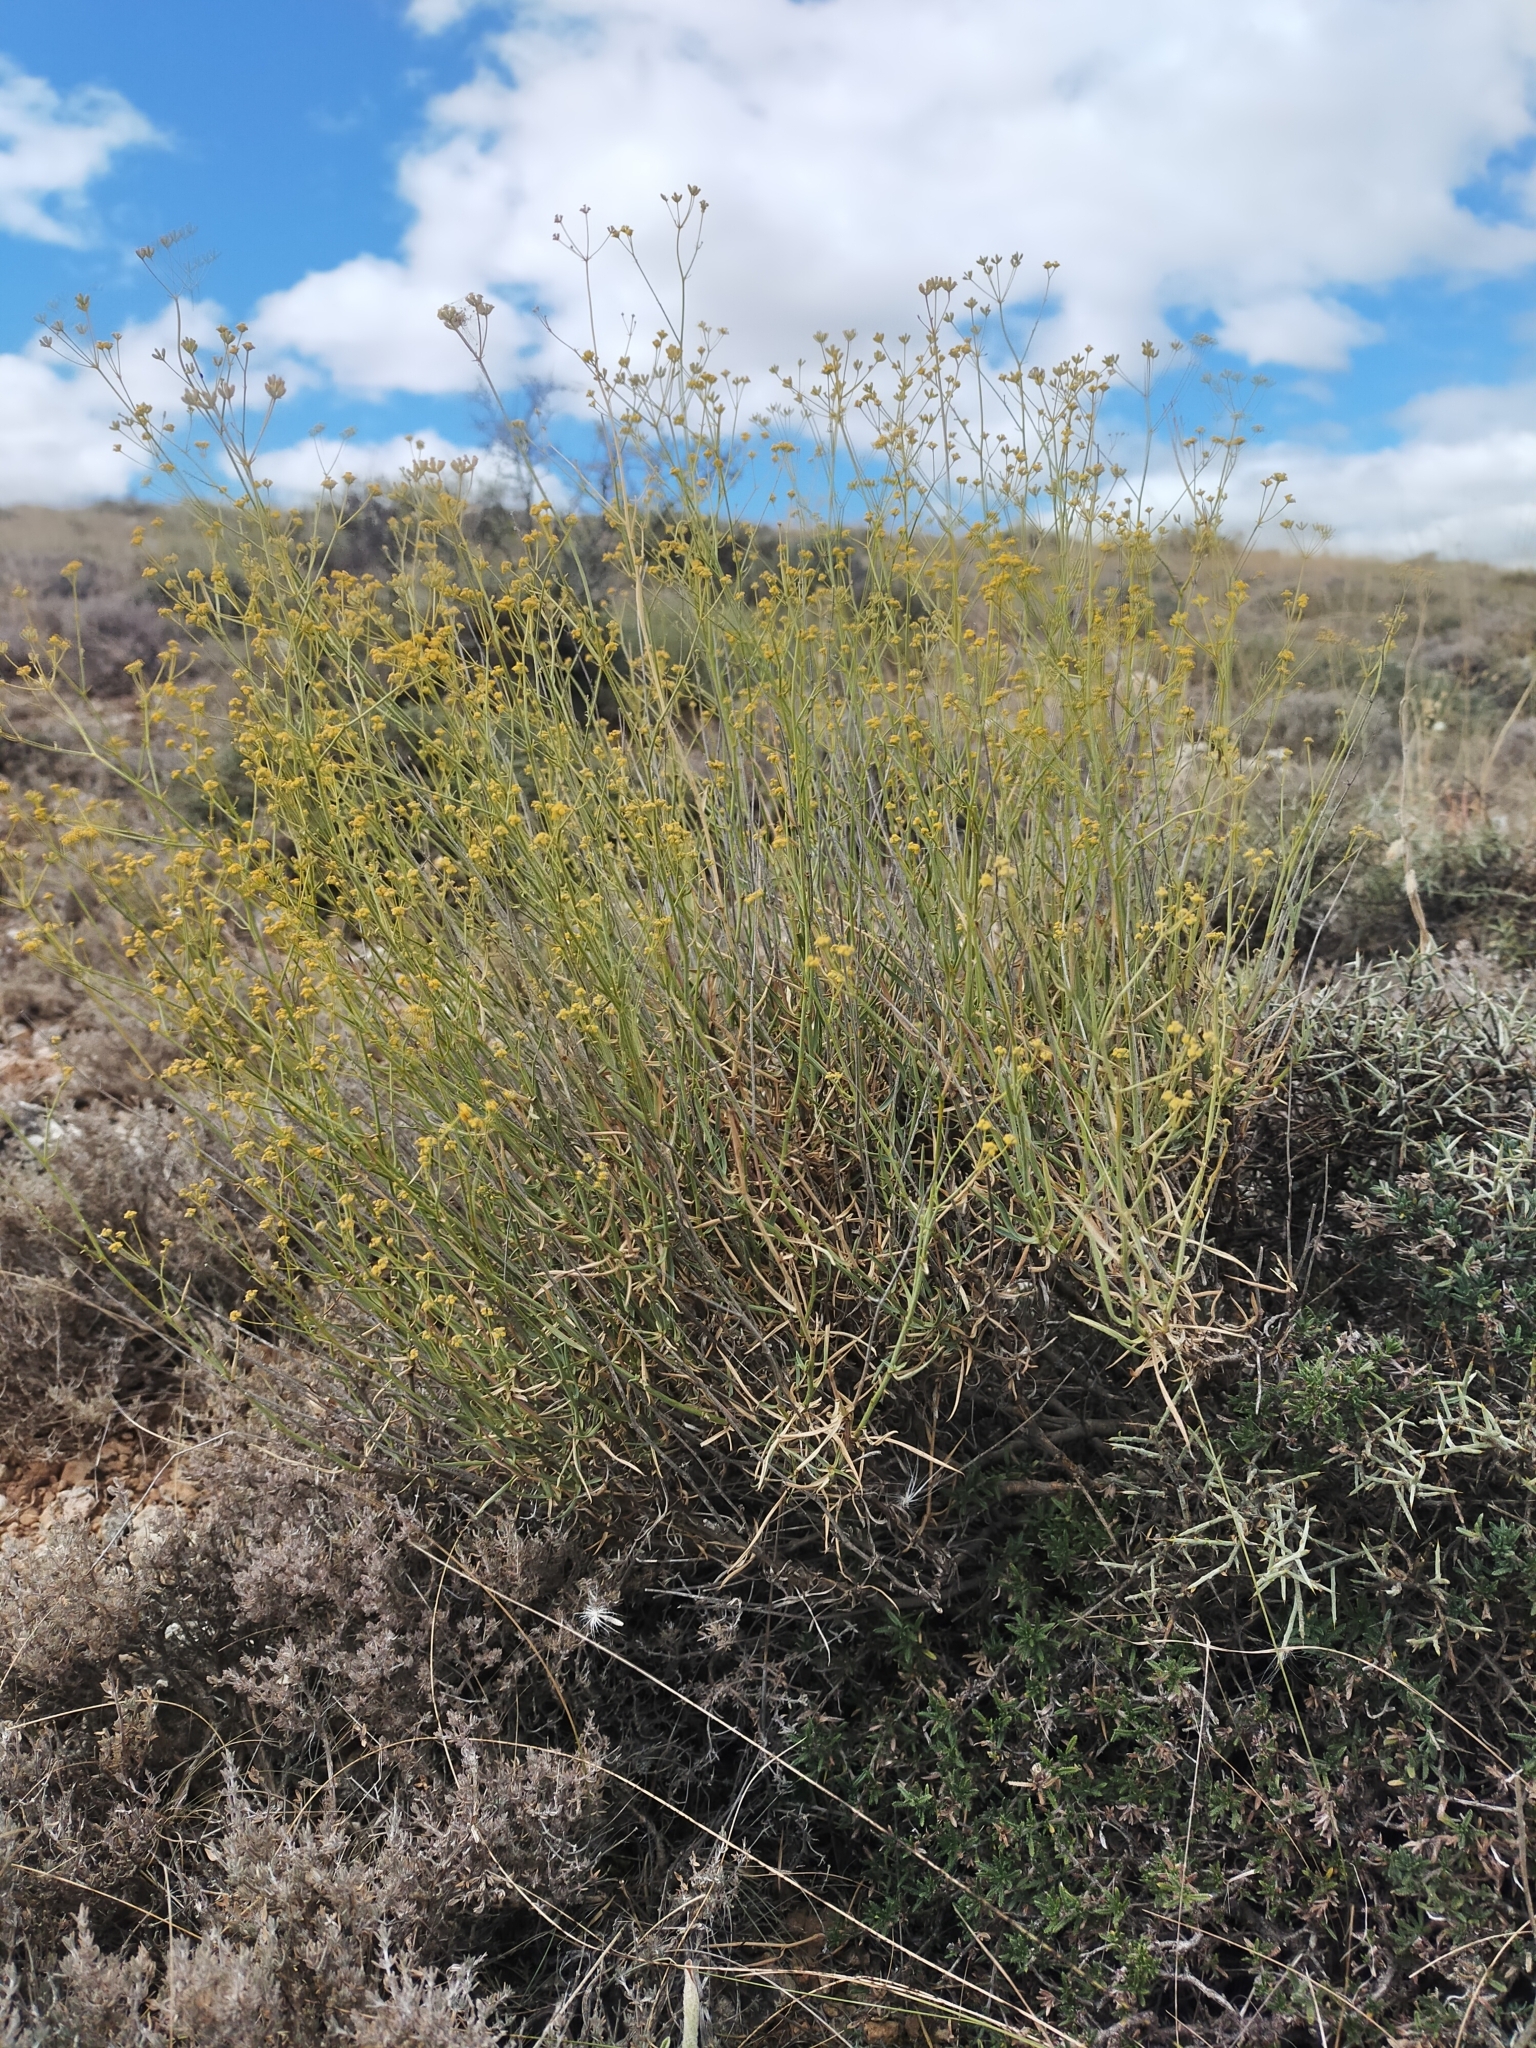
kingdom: Plantae
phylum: Tracheophyta
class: Magnoliopsida
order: Apiales
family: Apiaceae
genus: Bupleurum
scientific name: Bupleurum fruticescens
